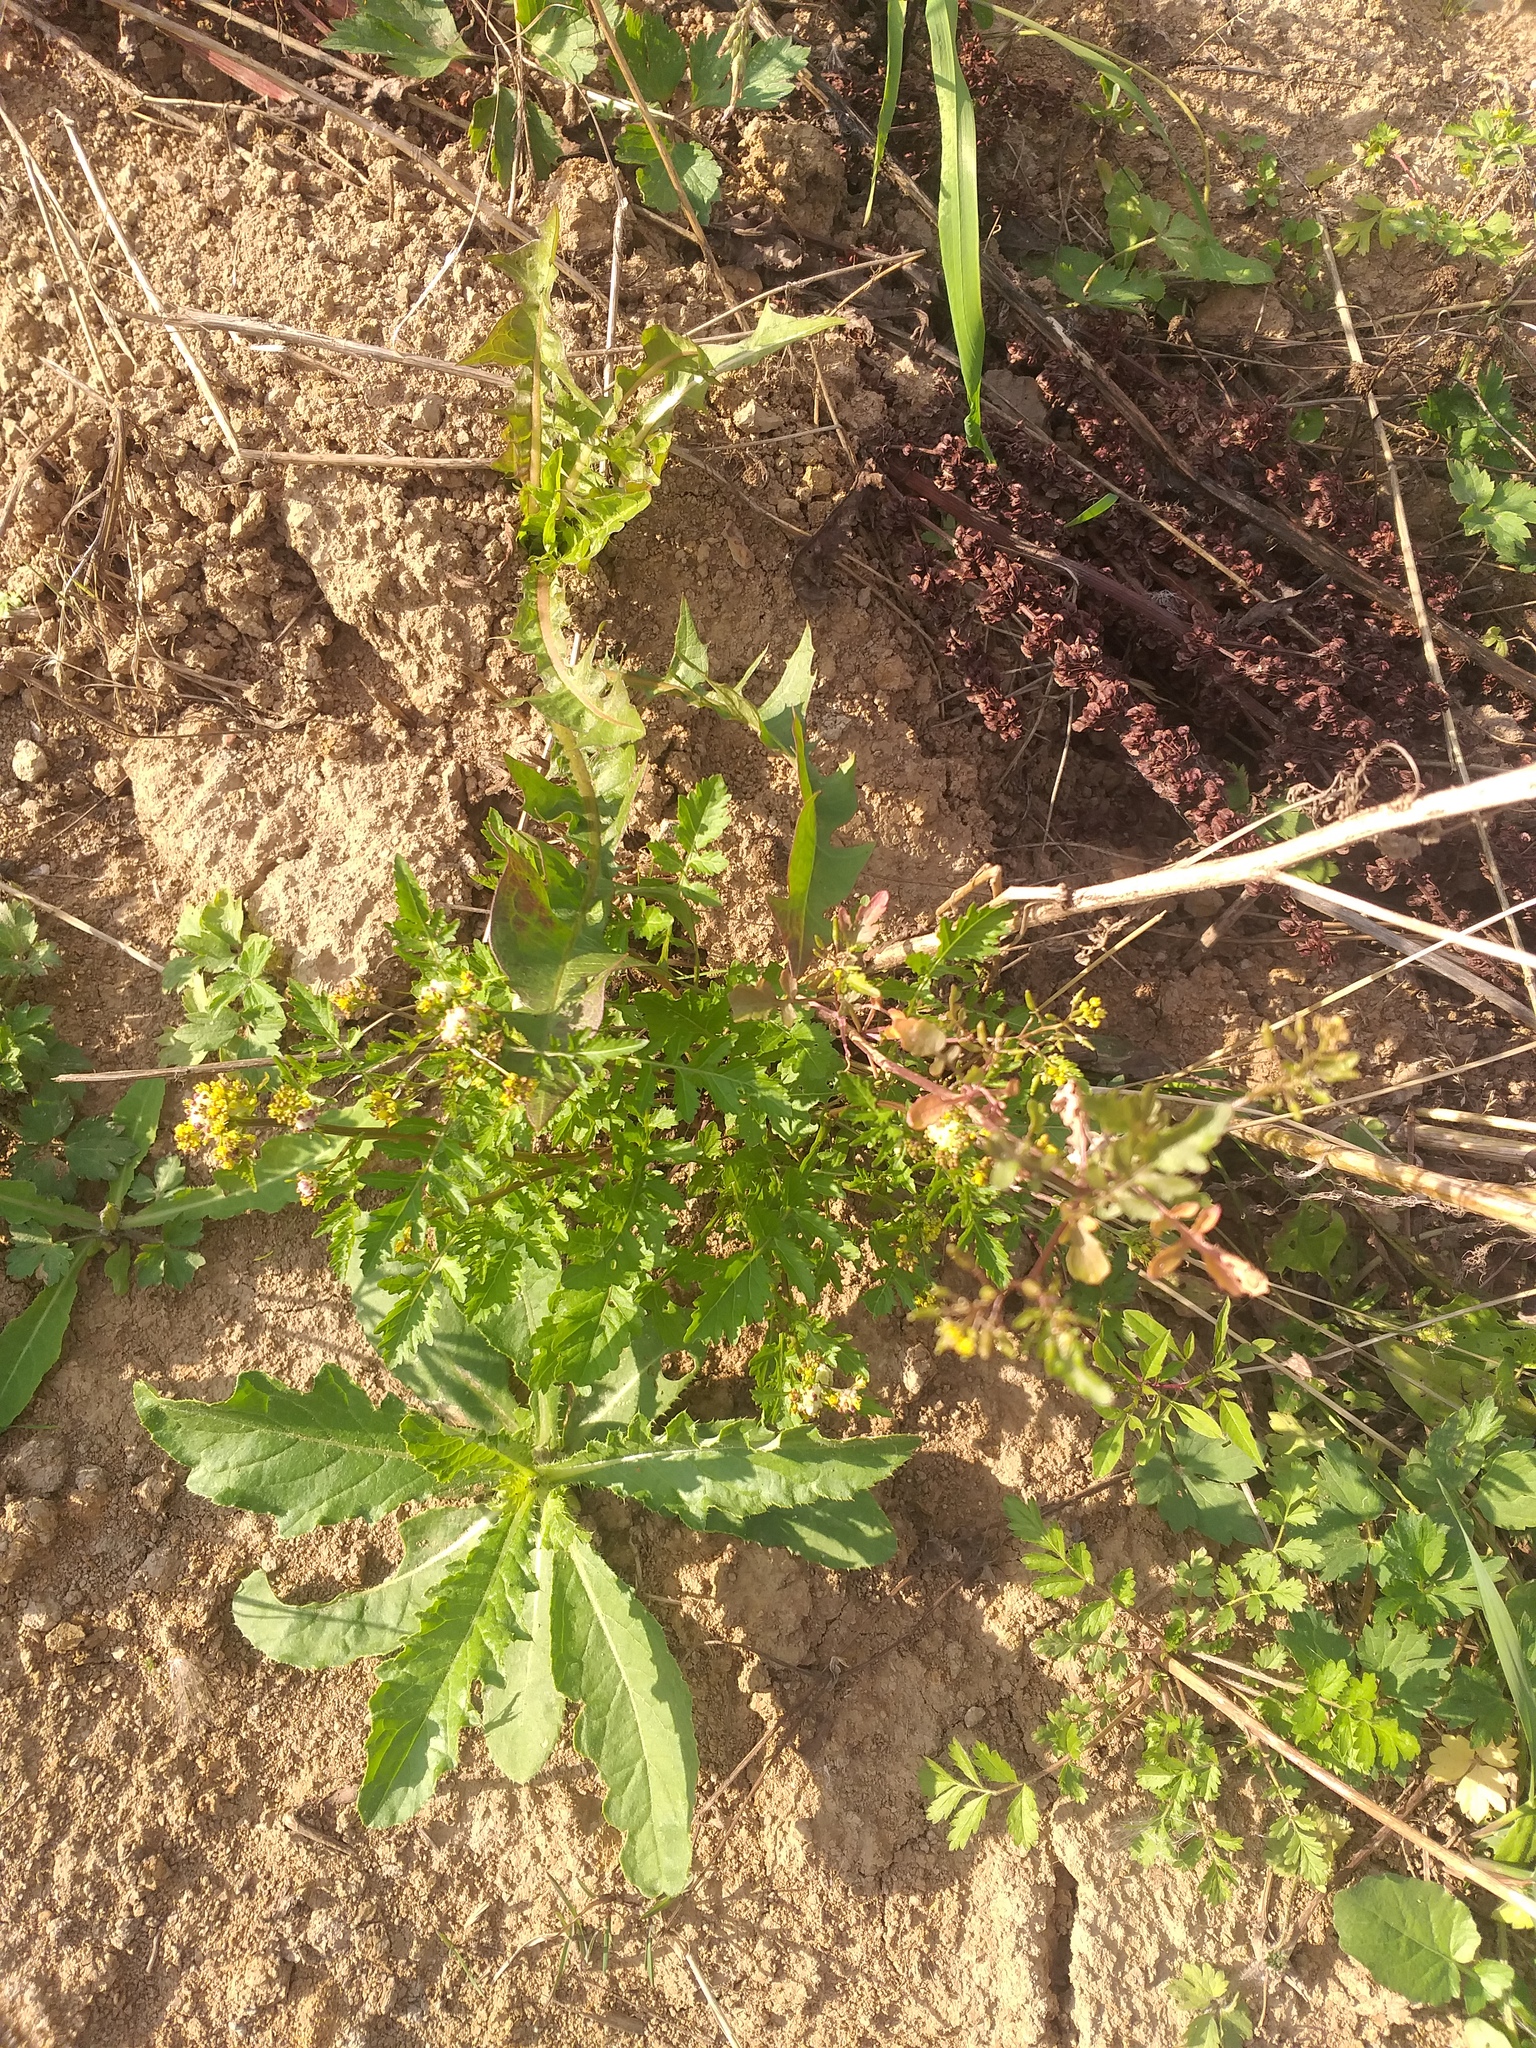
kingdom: Plantae
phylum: Tracheophyta
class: Magnoliopsida
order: Brassicales
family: Brassicaceae
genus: Rorippa
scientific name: Rorippa palustris
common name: Marsh yellow-cress
